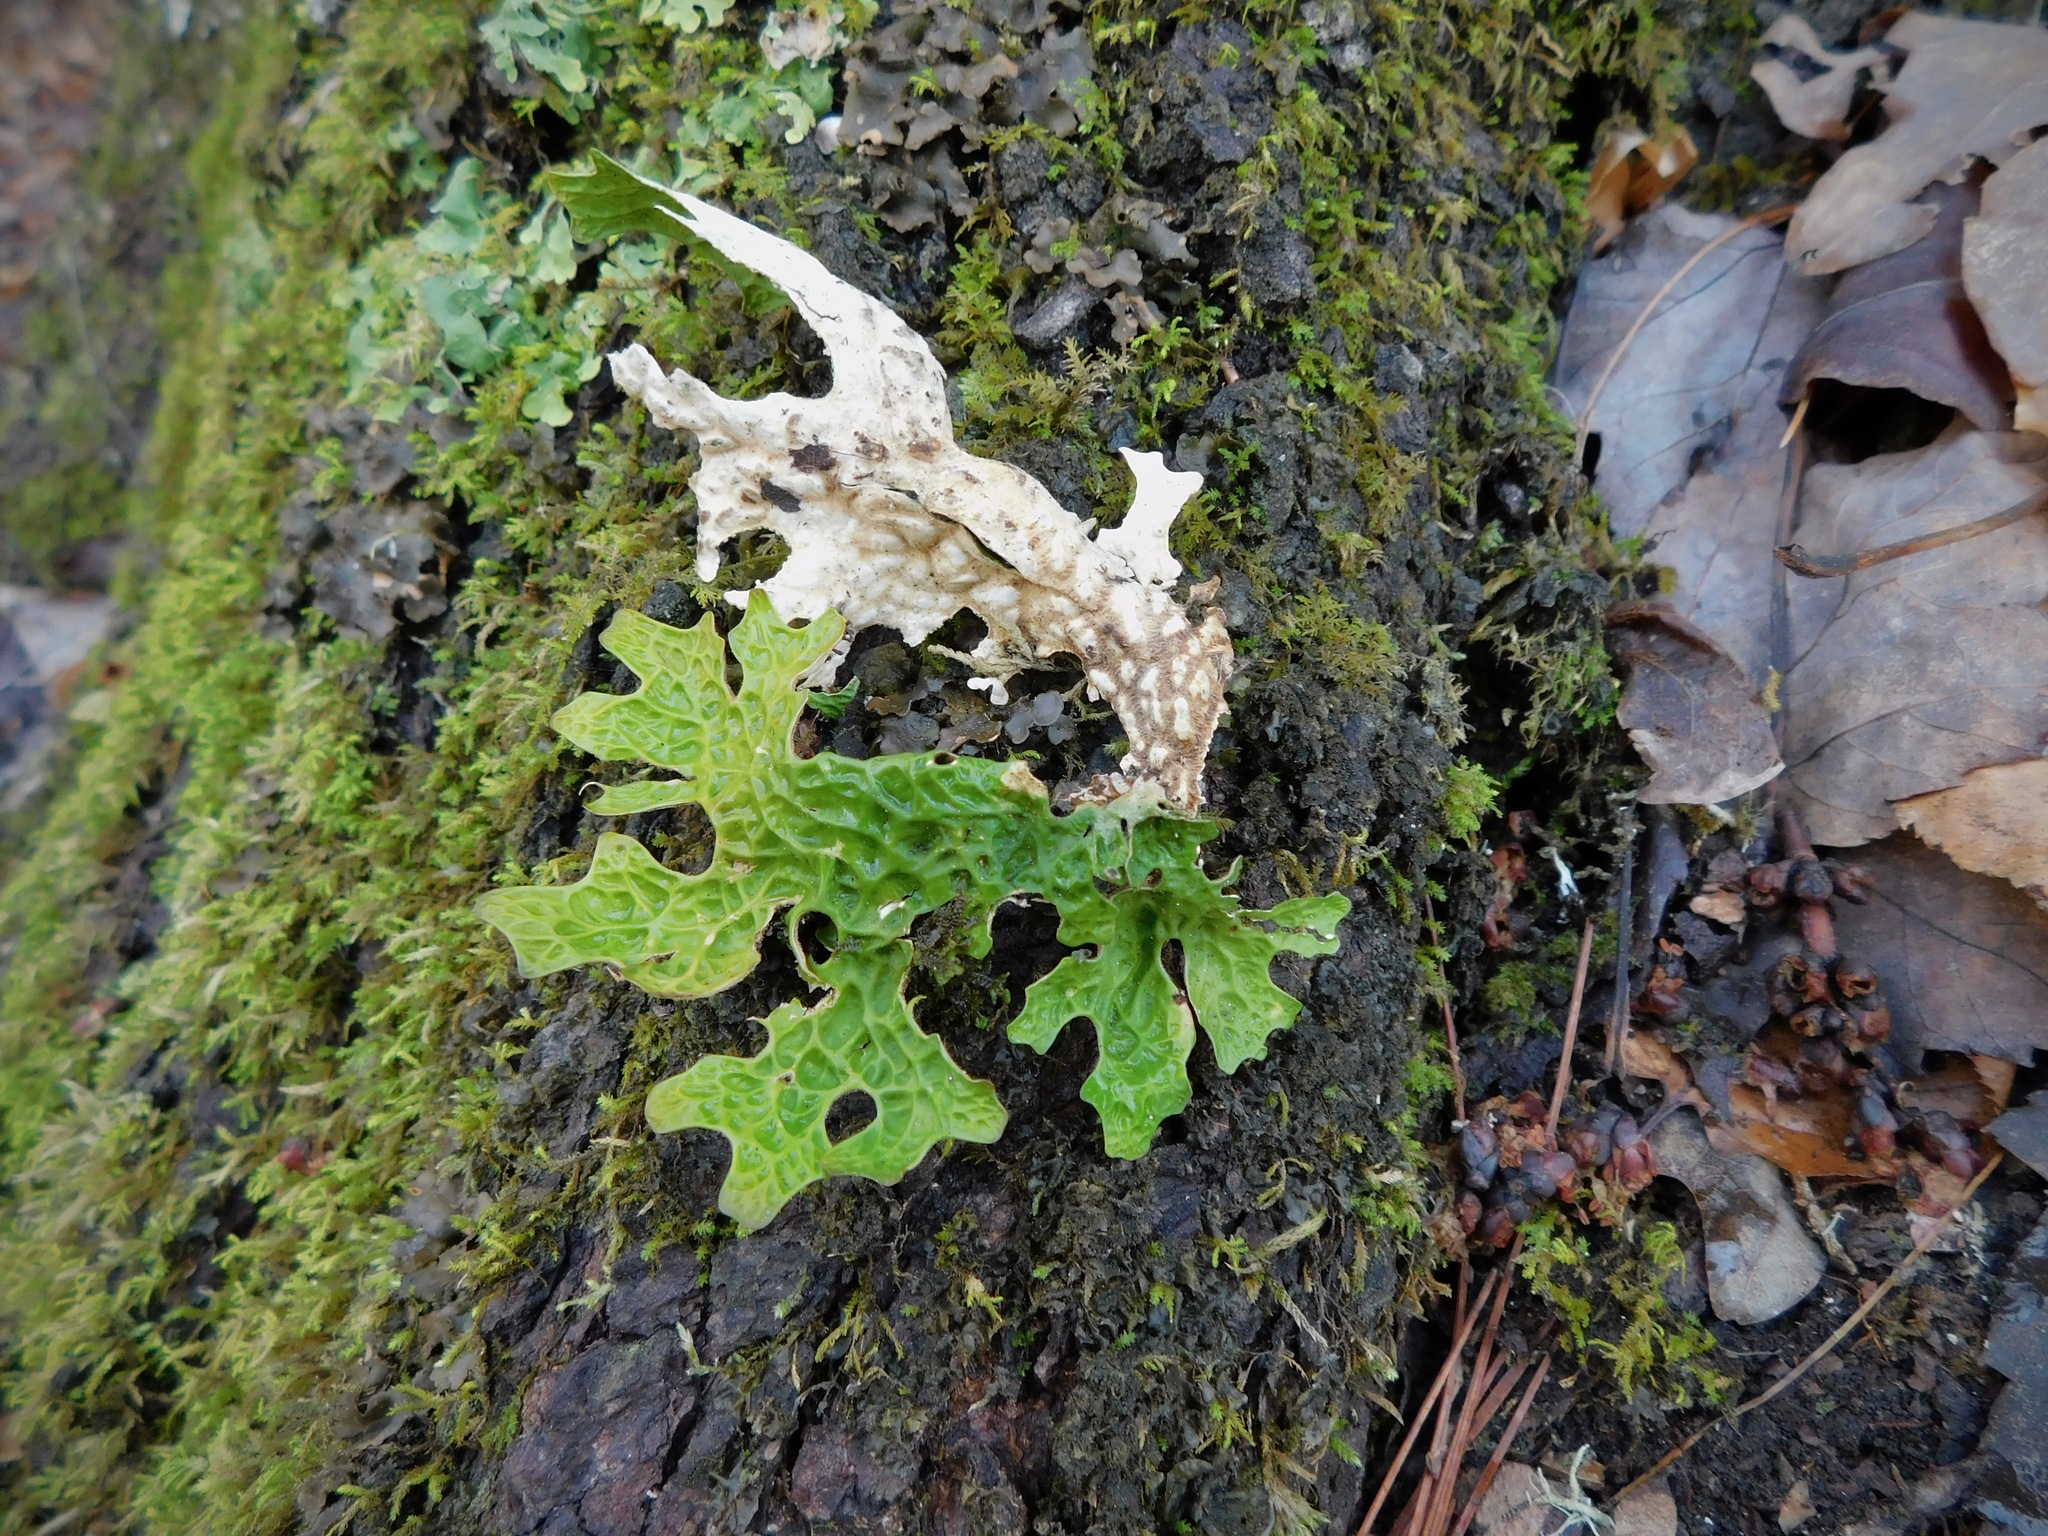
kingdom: Fungi
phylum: Ascomycota
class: Lecanoromycetes
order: Peltigerales
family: Lobariaceae
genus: Lobaria
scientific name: Lobaria pulmonaria
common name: Lungwort
